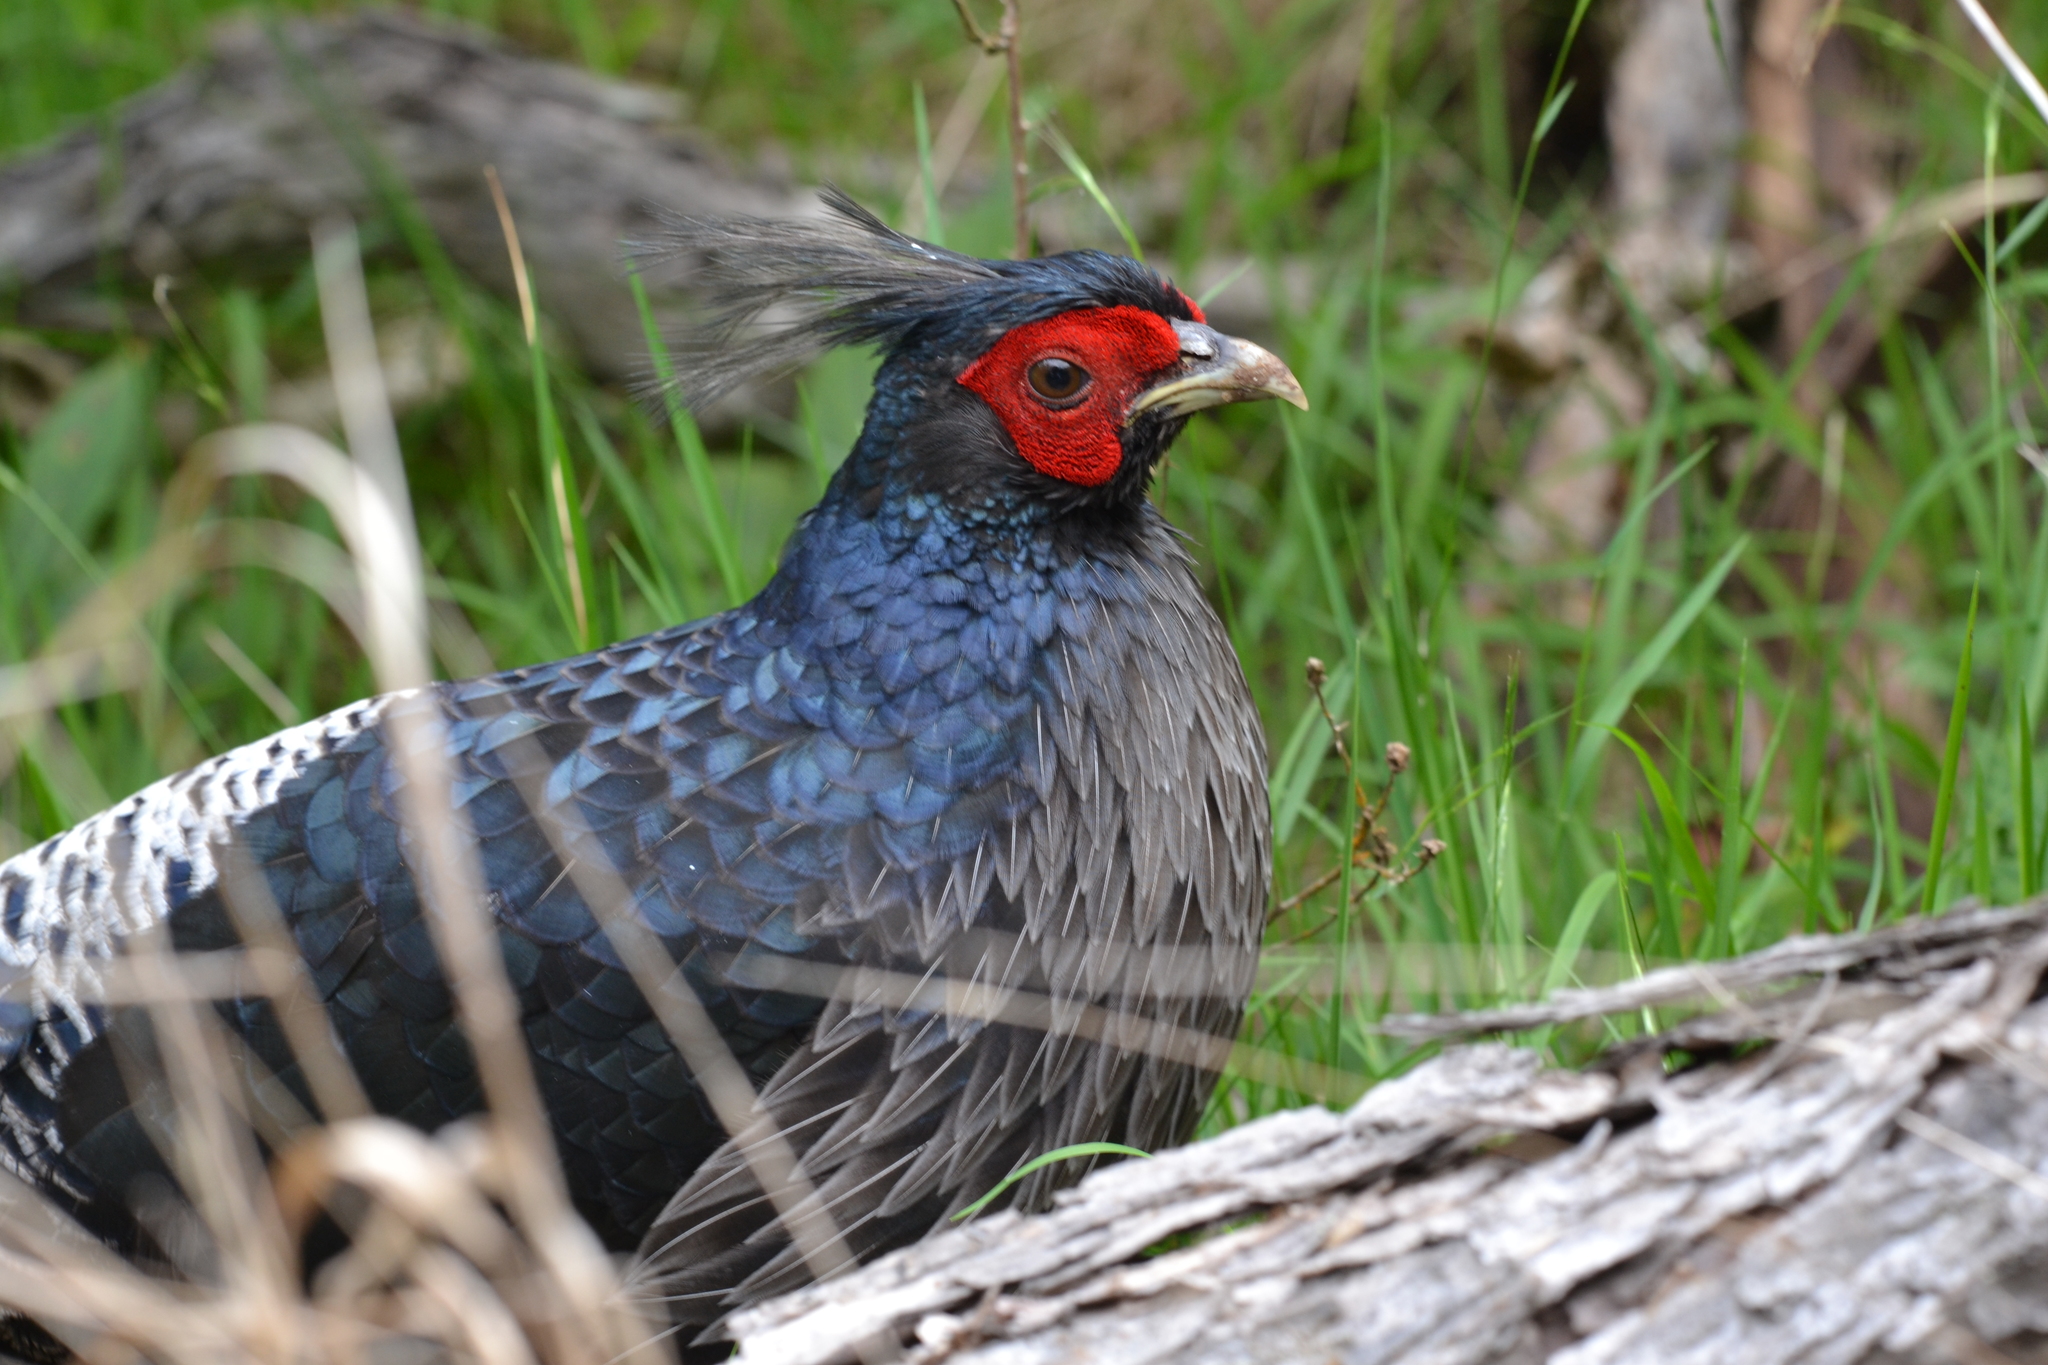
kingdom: Animalia
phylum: Chordata
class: Aves
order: Galliformes
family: Phasianidae
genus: Lophura
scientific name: Lophura leucomelanos
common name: Kalij pheasant
